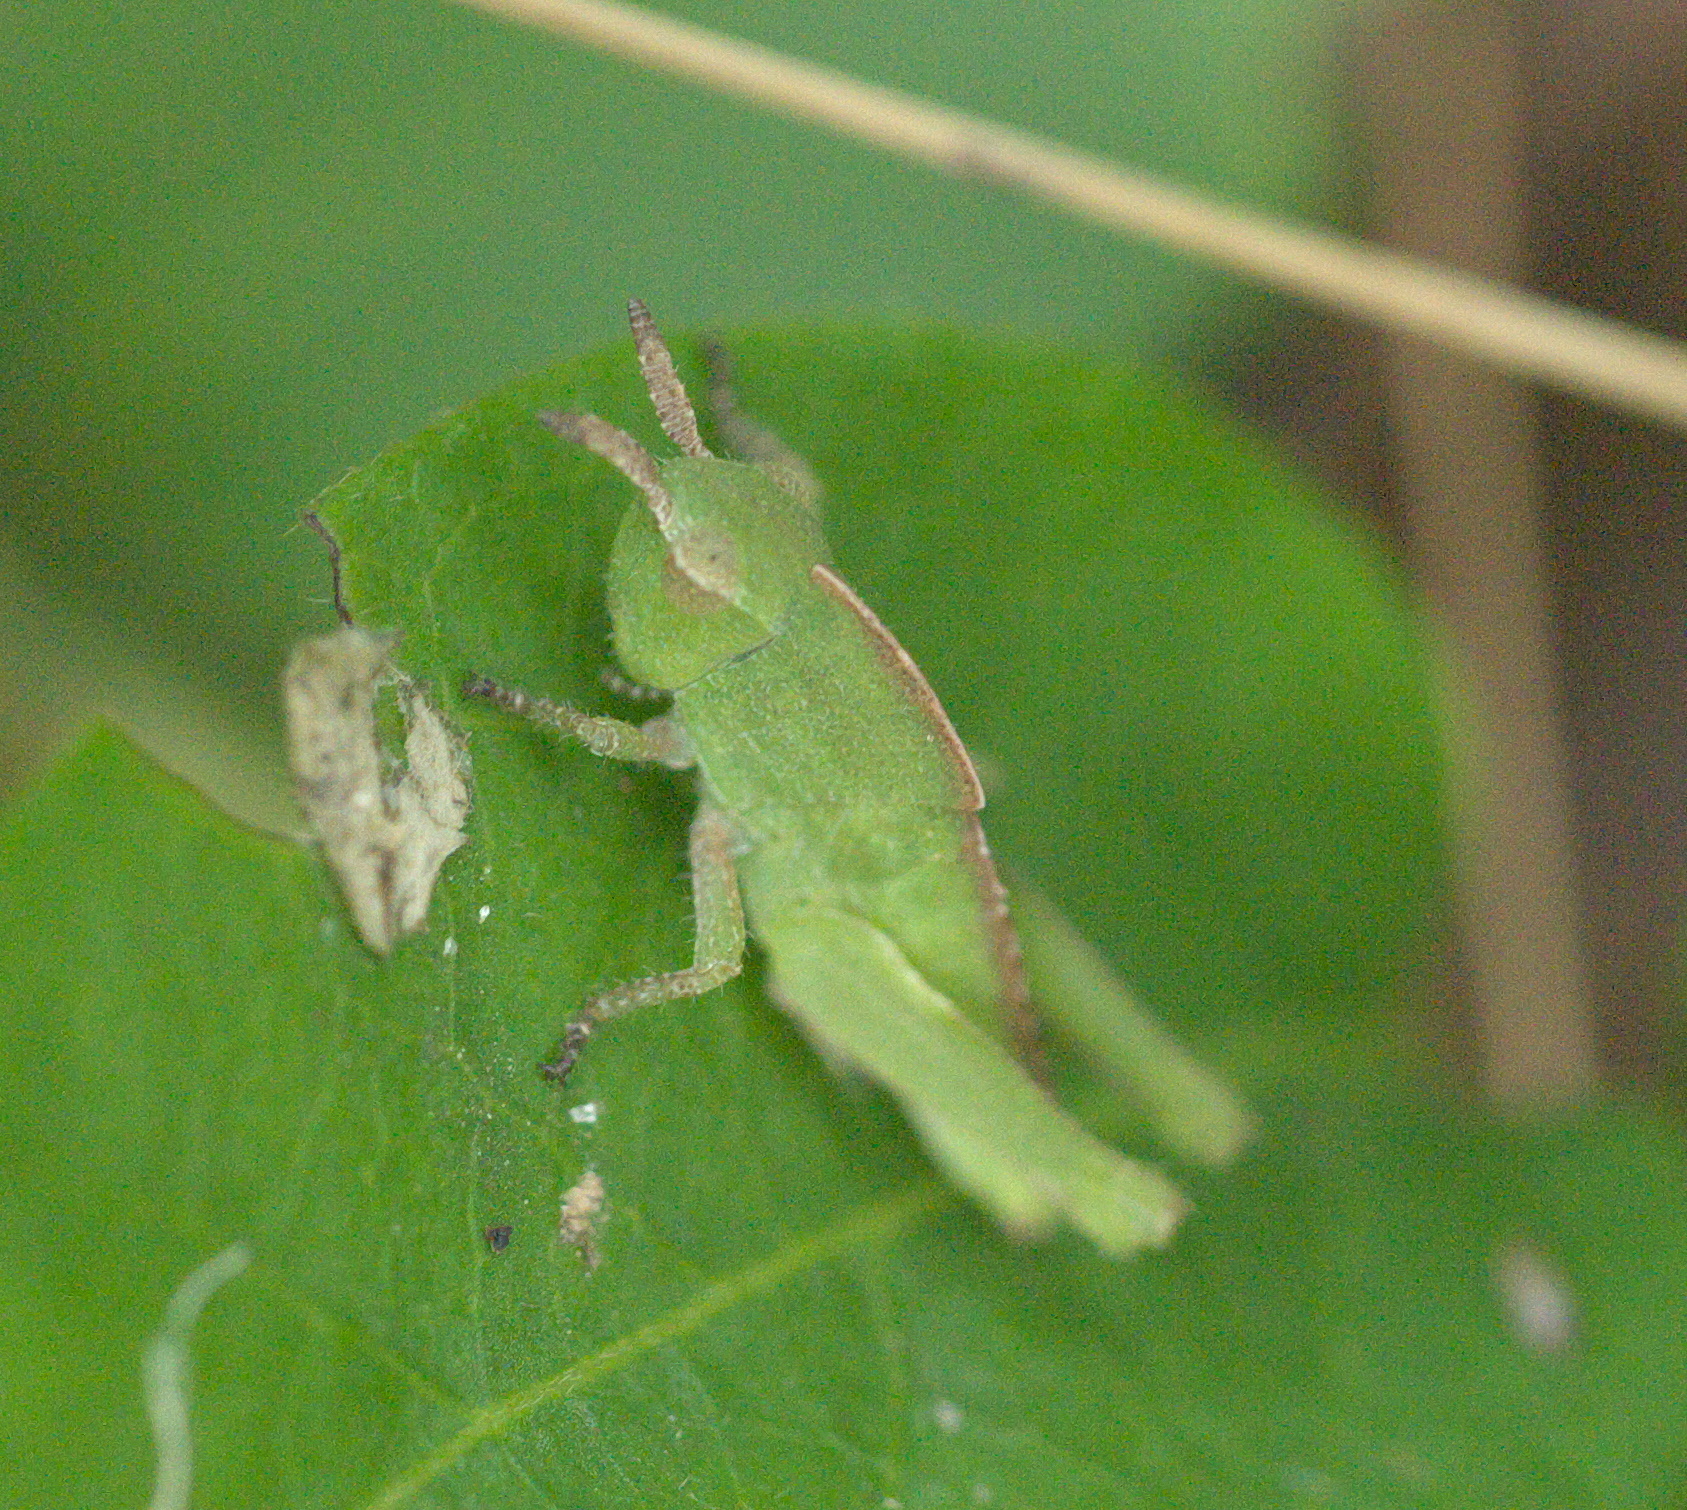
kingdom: Animalia
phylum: Arthropoda
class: Insecta
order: Orthoptera
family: Acrididae
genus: Chortophaga
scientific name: Chortophaga viridifasciata
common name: Green-striped grasshopper
